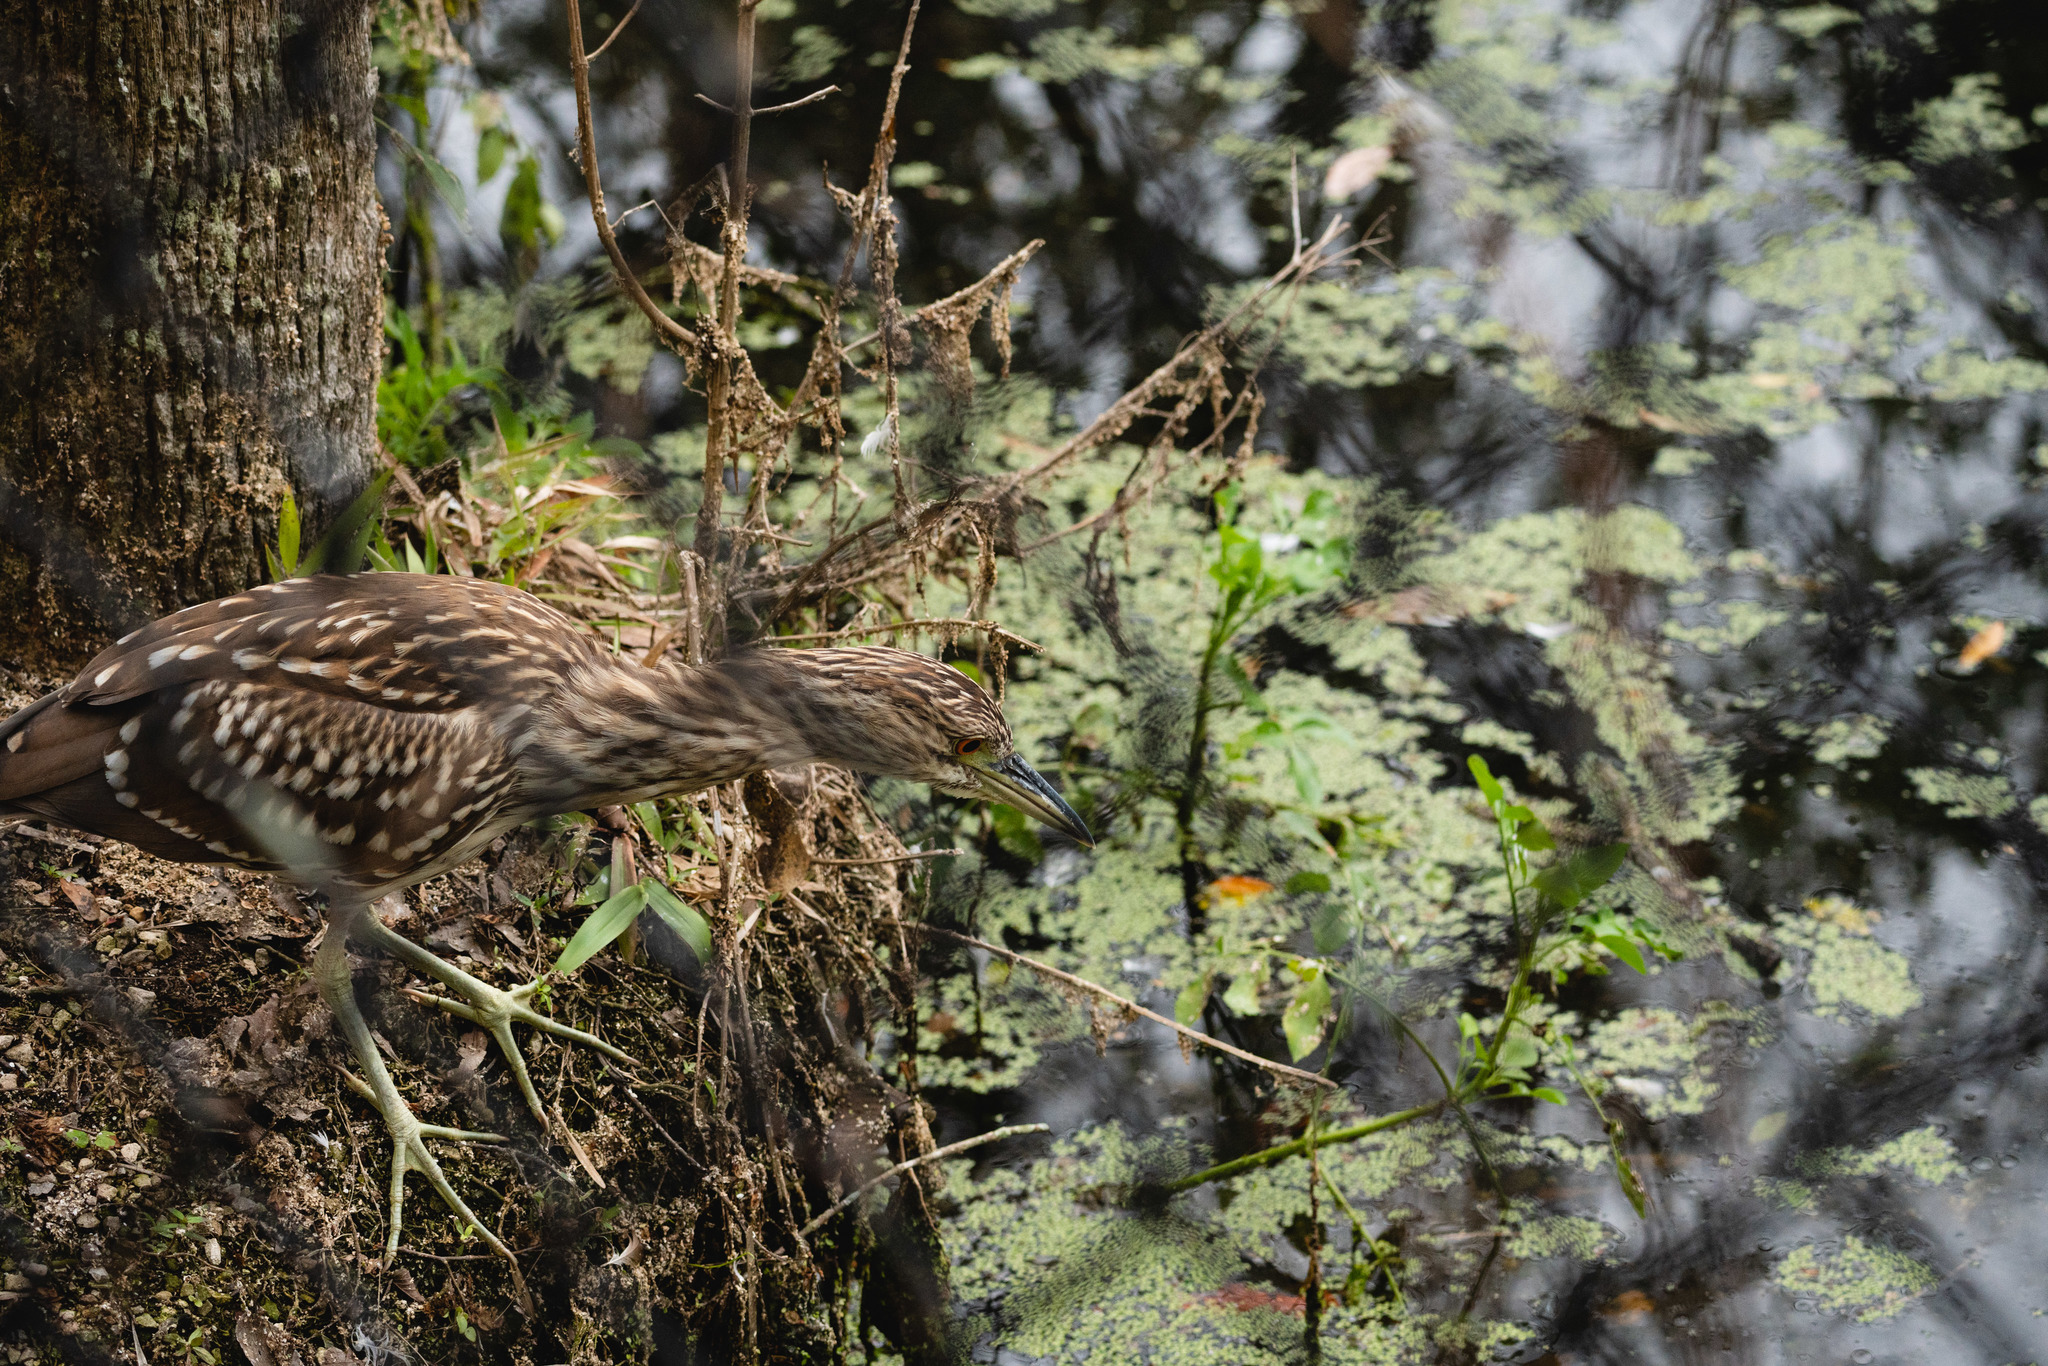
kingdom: Animalia
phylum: Chordata
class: Aves
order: Pelecaniformes
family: Ardeidae
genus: Nycticorax
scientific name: Nycticorax nycticorax
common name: Black-crowned night heron
